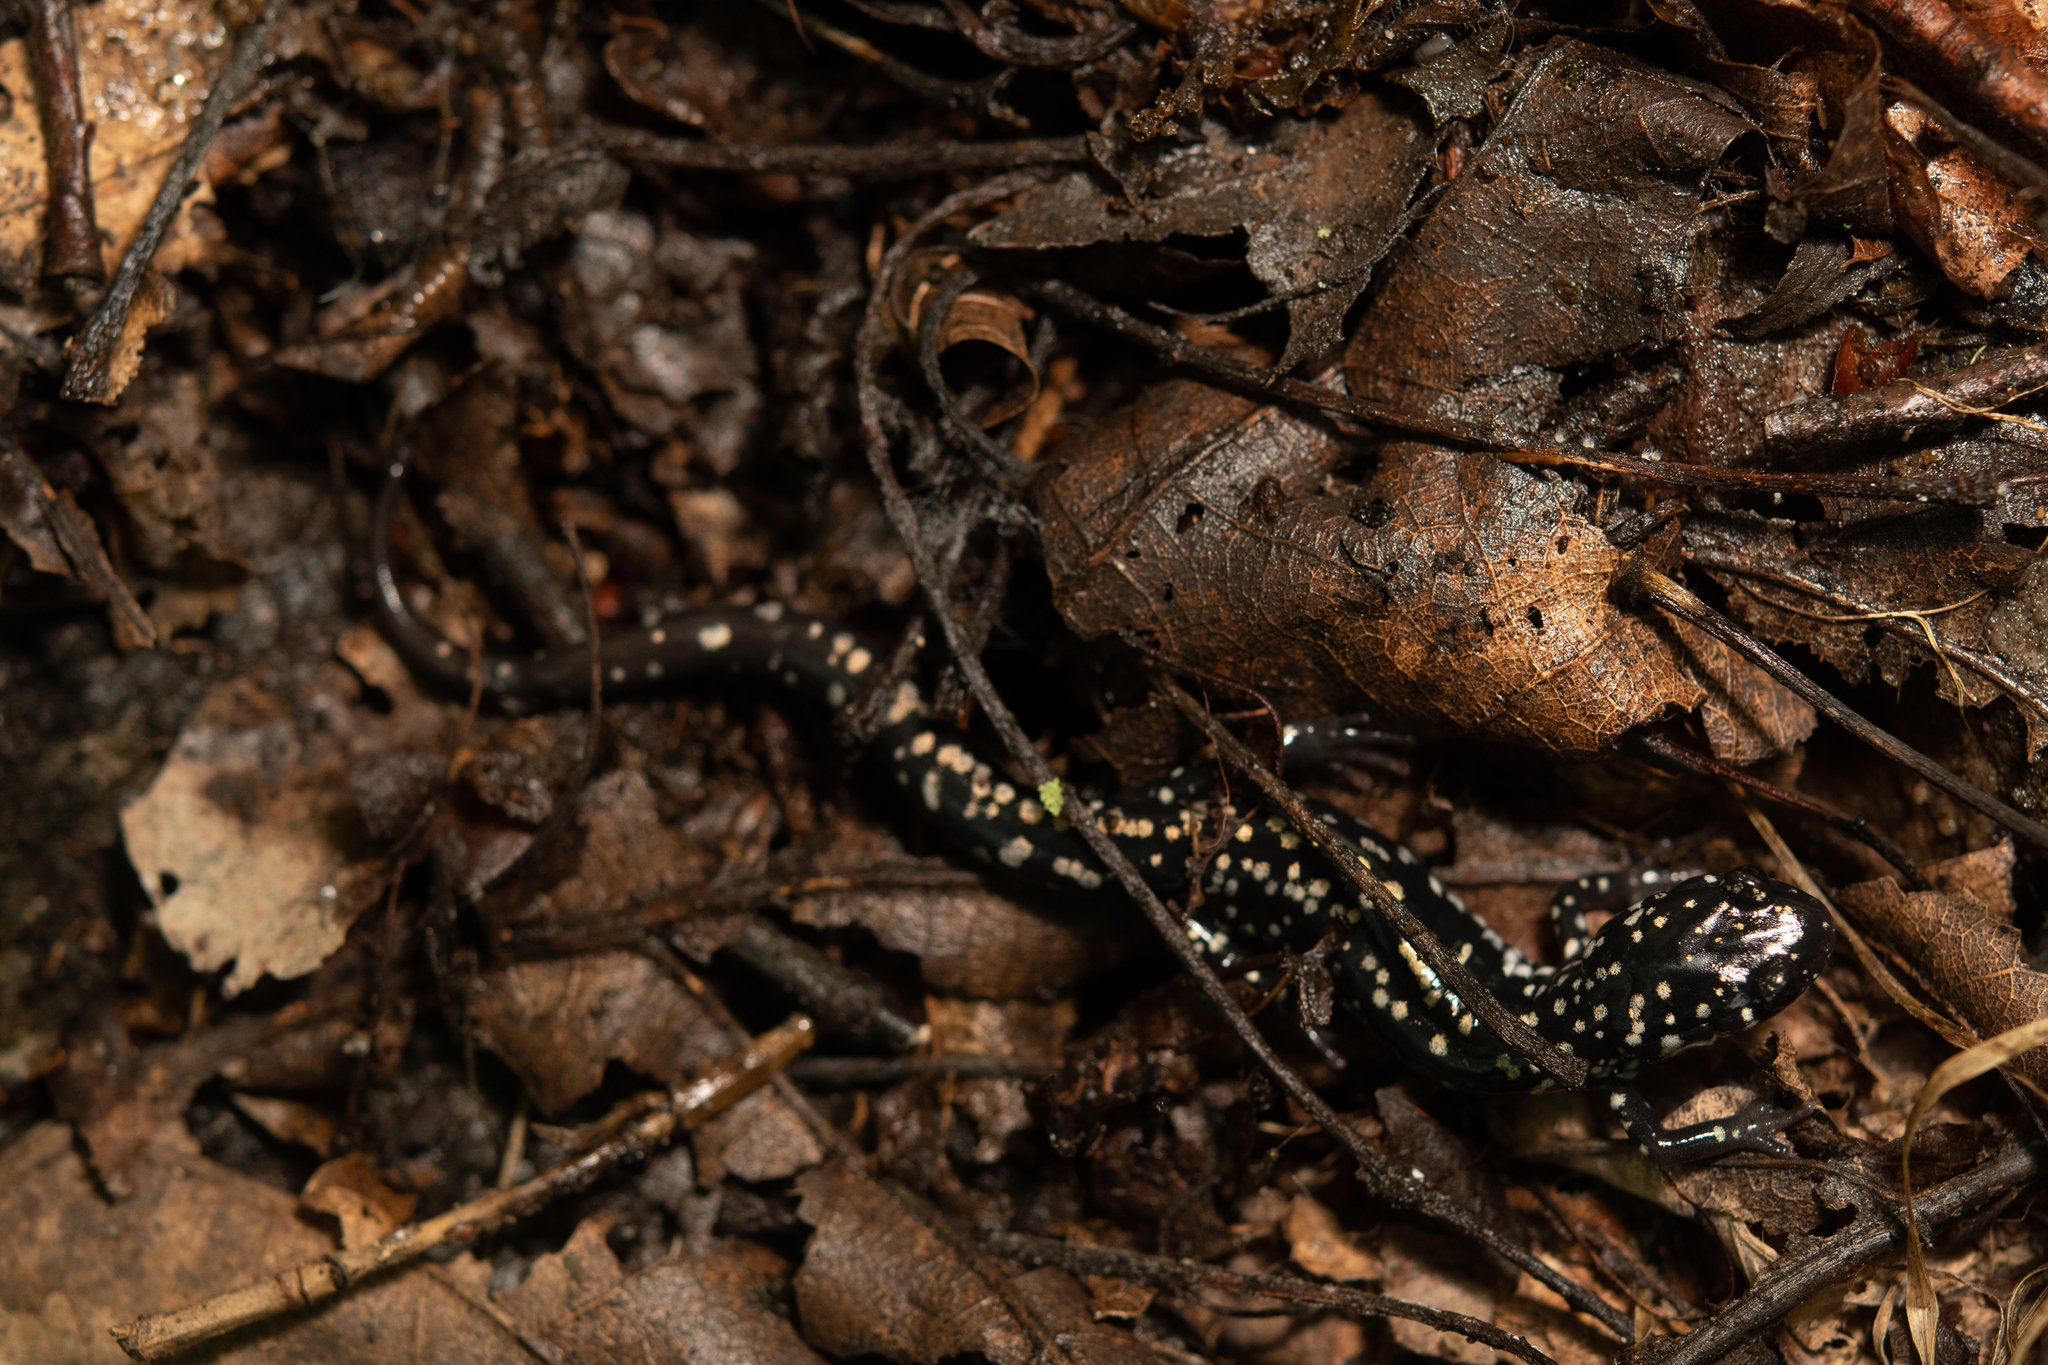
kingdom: Animalia
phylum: Chordata
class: Amphibia
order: Caudata
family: Plethodontidae
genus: Plethodon
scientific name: Plethodon glutinosus
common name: Northern slimy salamander
